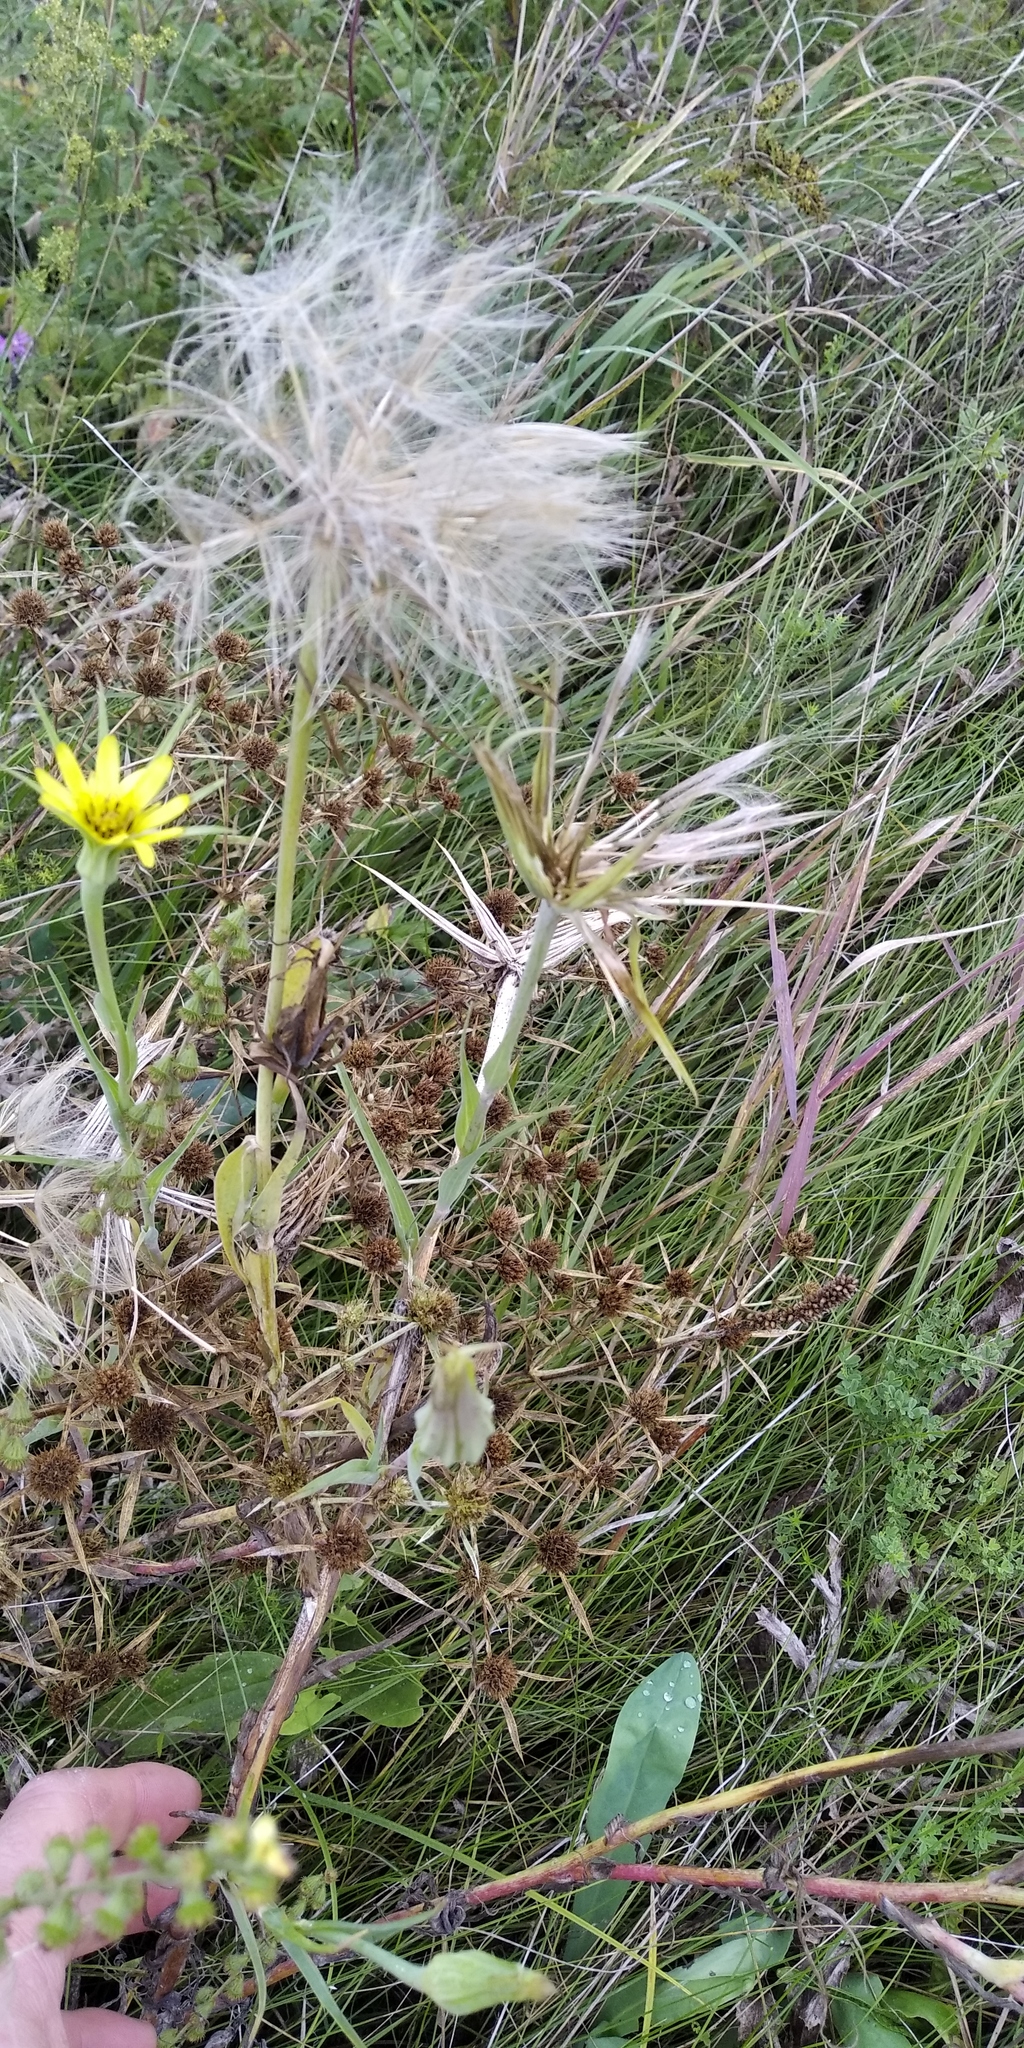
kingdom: Plantae
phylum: Tracheophyta
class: Magnoliopsida
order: Asterales
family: Asteraceae
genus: Tragopogon
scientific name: Tragopogon dubius
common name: Yellow salsify
